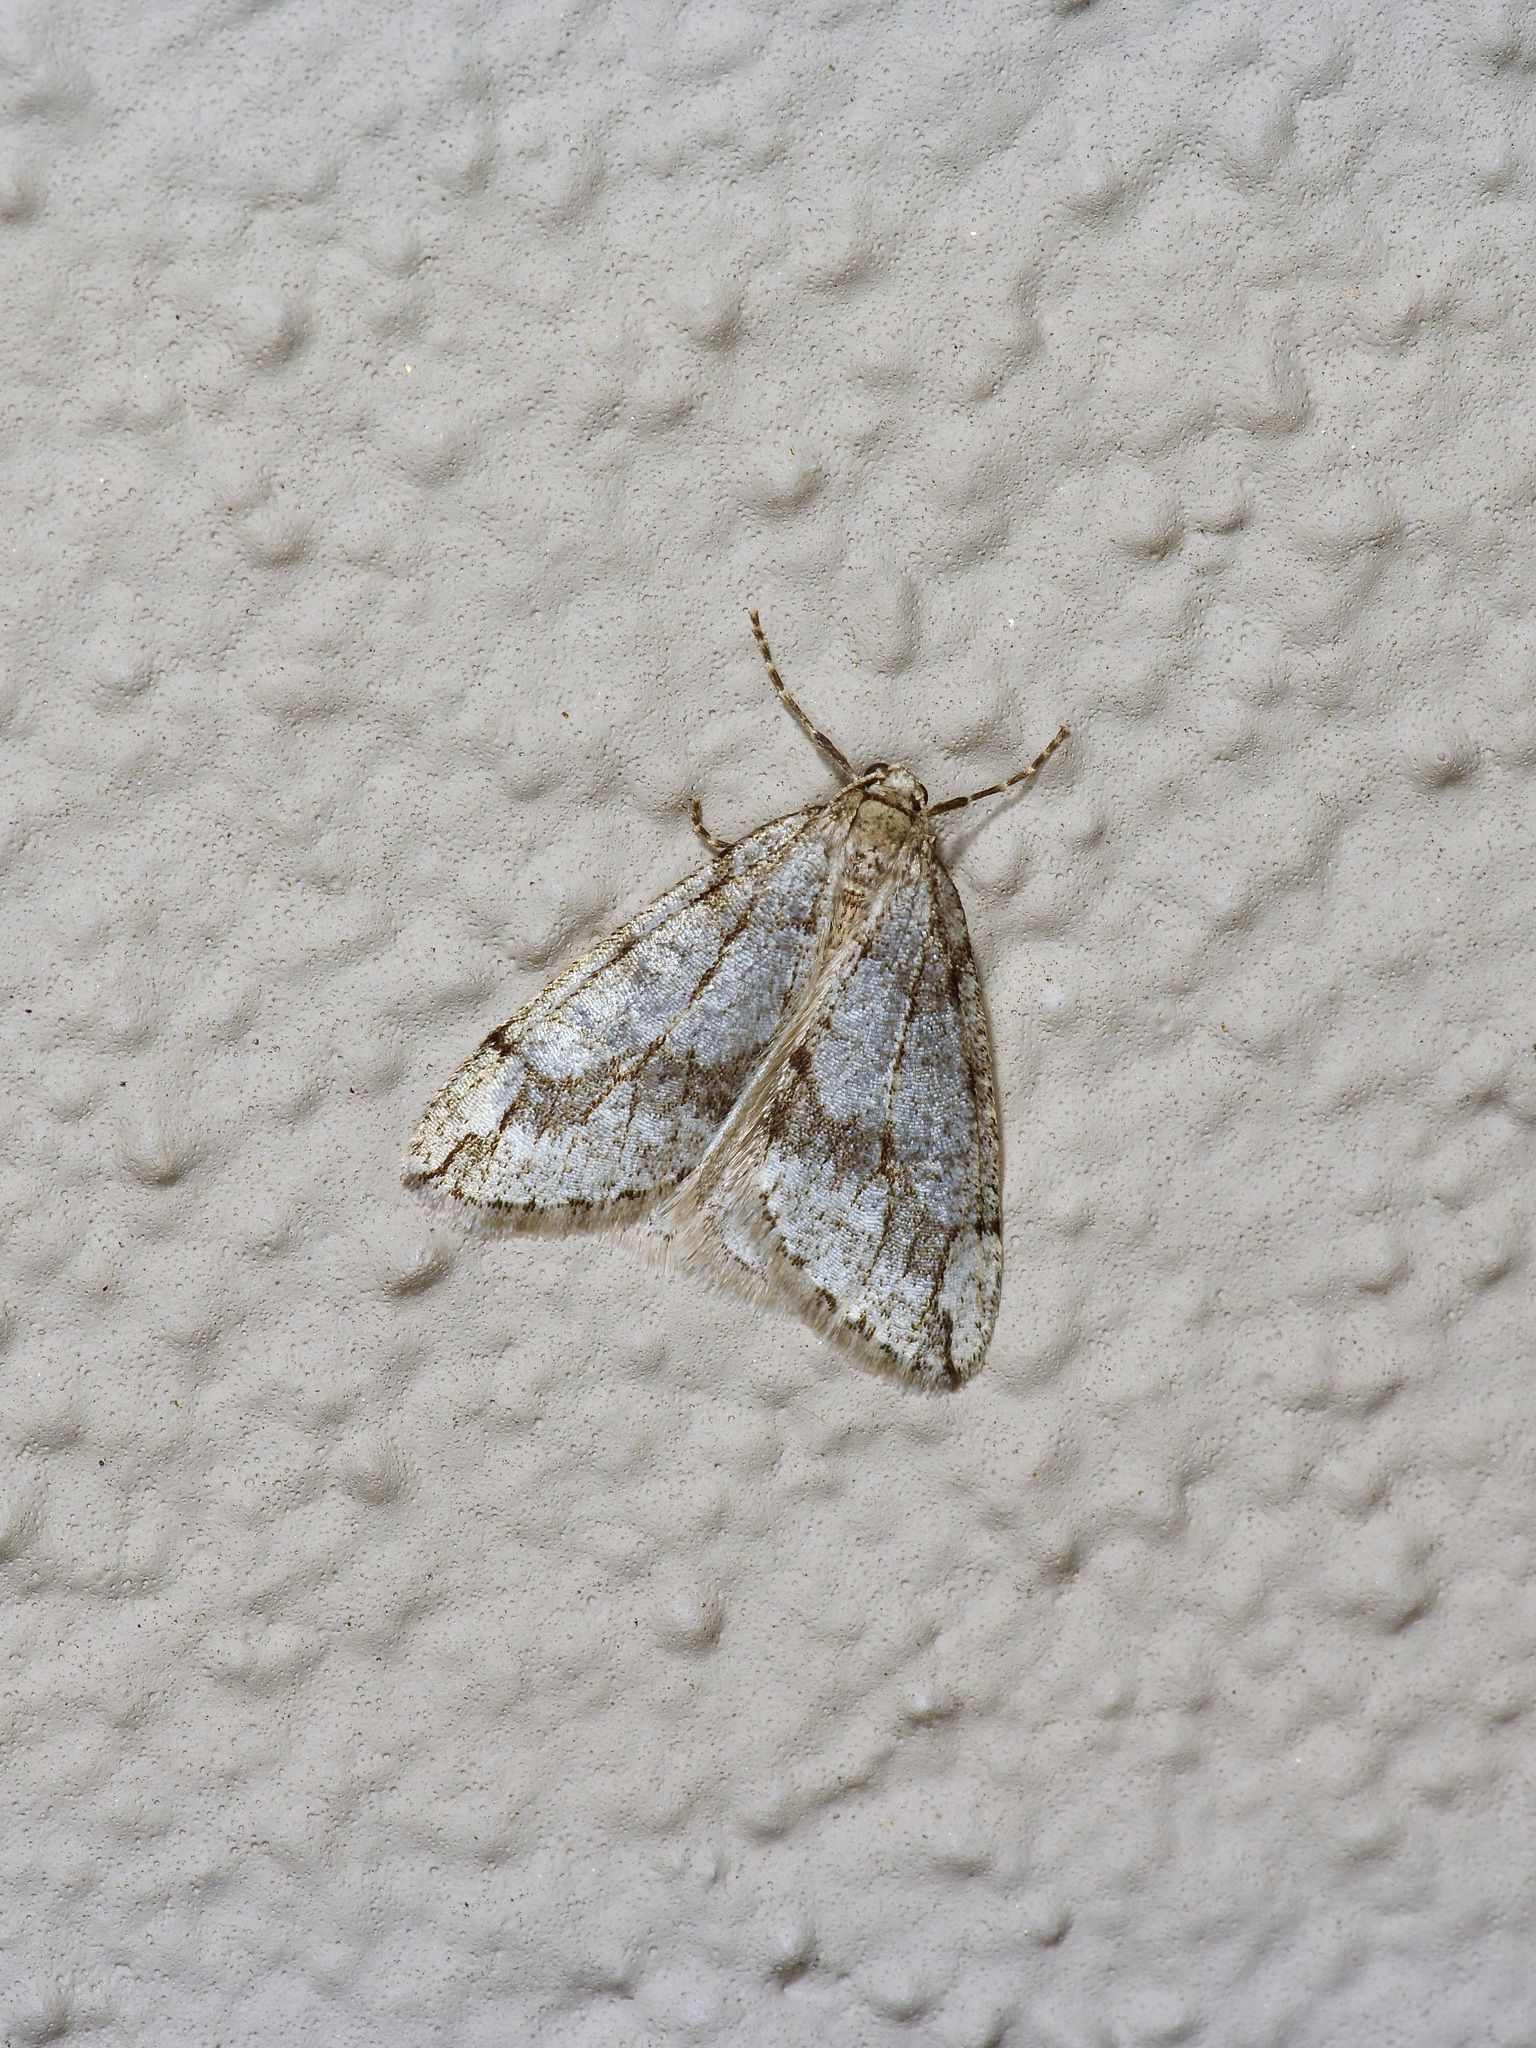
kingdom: Animalia
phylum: Arthropoda
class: Insecta
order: Lepidoptera
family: Geometridae
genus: Paleacrita
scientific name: Paleacrita vernata
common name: Spring cankerworm
